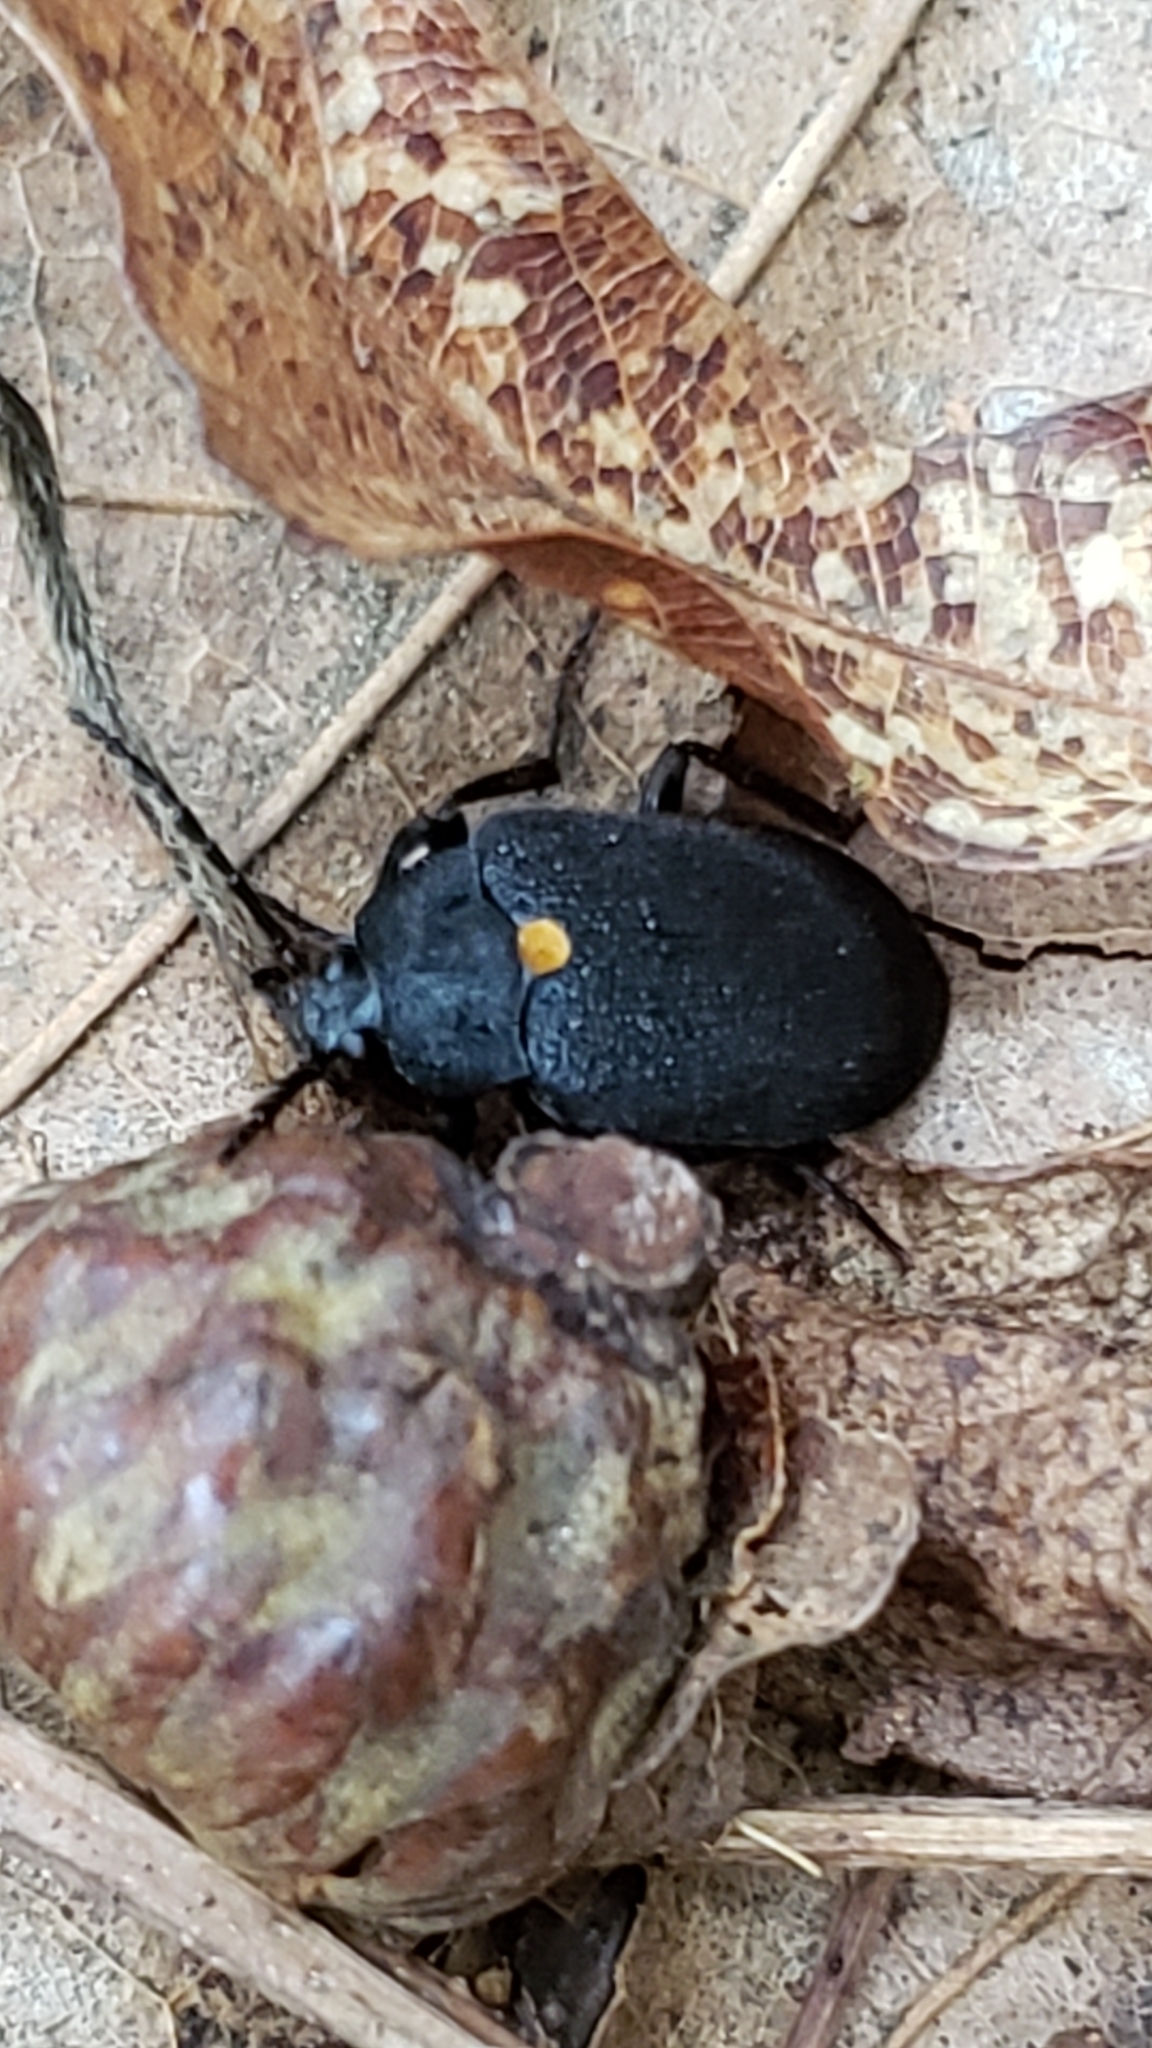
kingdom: Animalia
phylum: Arthropoda
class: Insecta
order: Coleoptera
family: Tetratomidae
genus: Penthe
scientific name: Penthe obliquata
